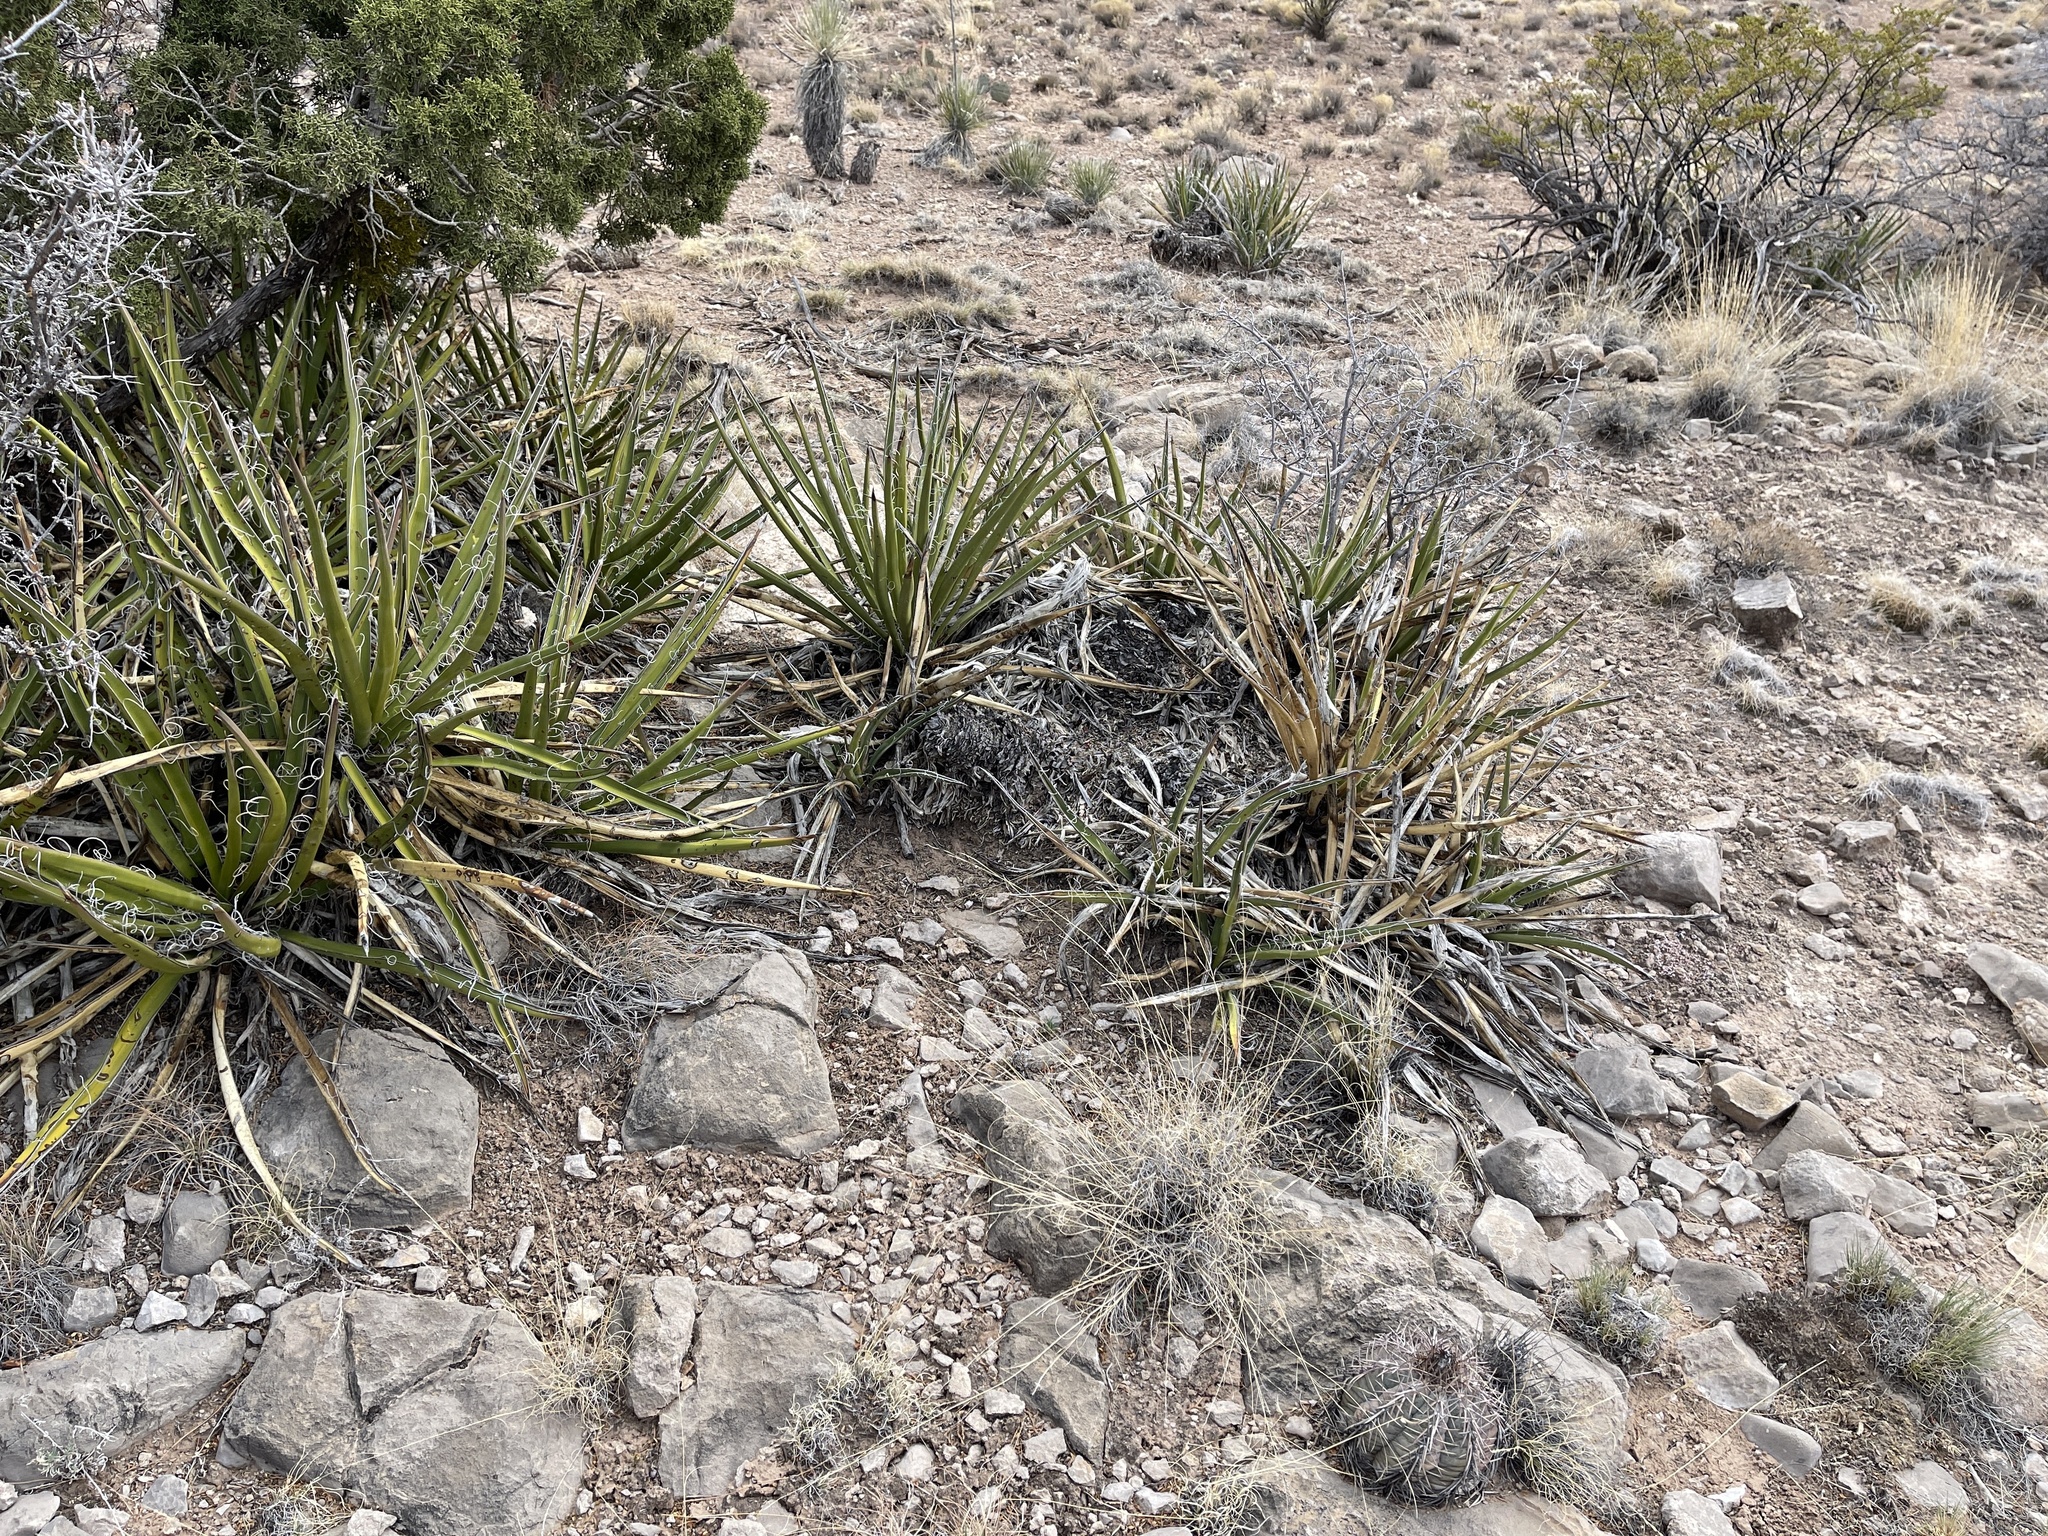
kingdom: Plantae
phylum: Tracheophyta
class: Liliopsida
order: Asparagales
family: Asparagaceae
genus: Yucca
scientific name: Yucca baccata
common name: Banana yucca
